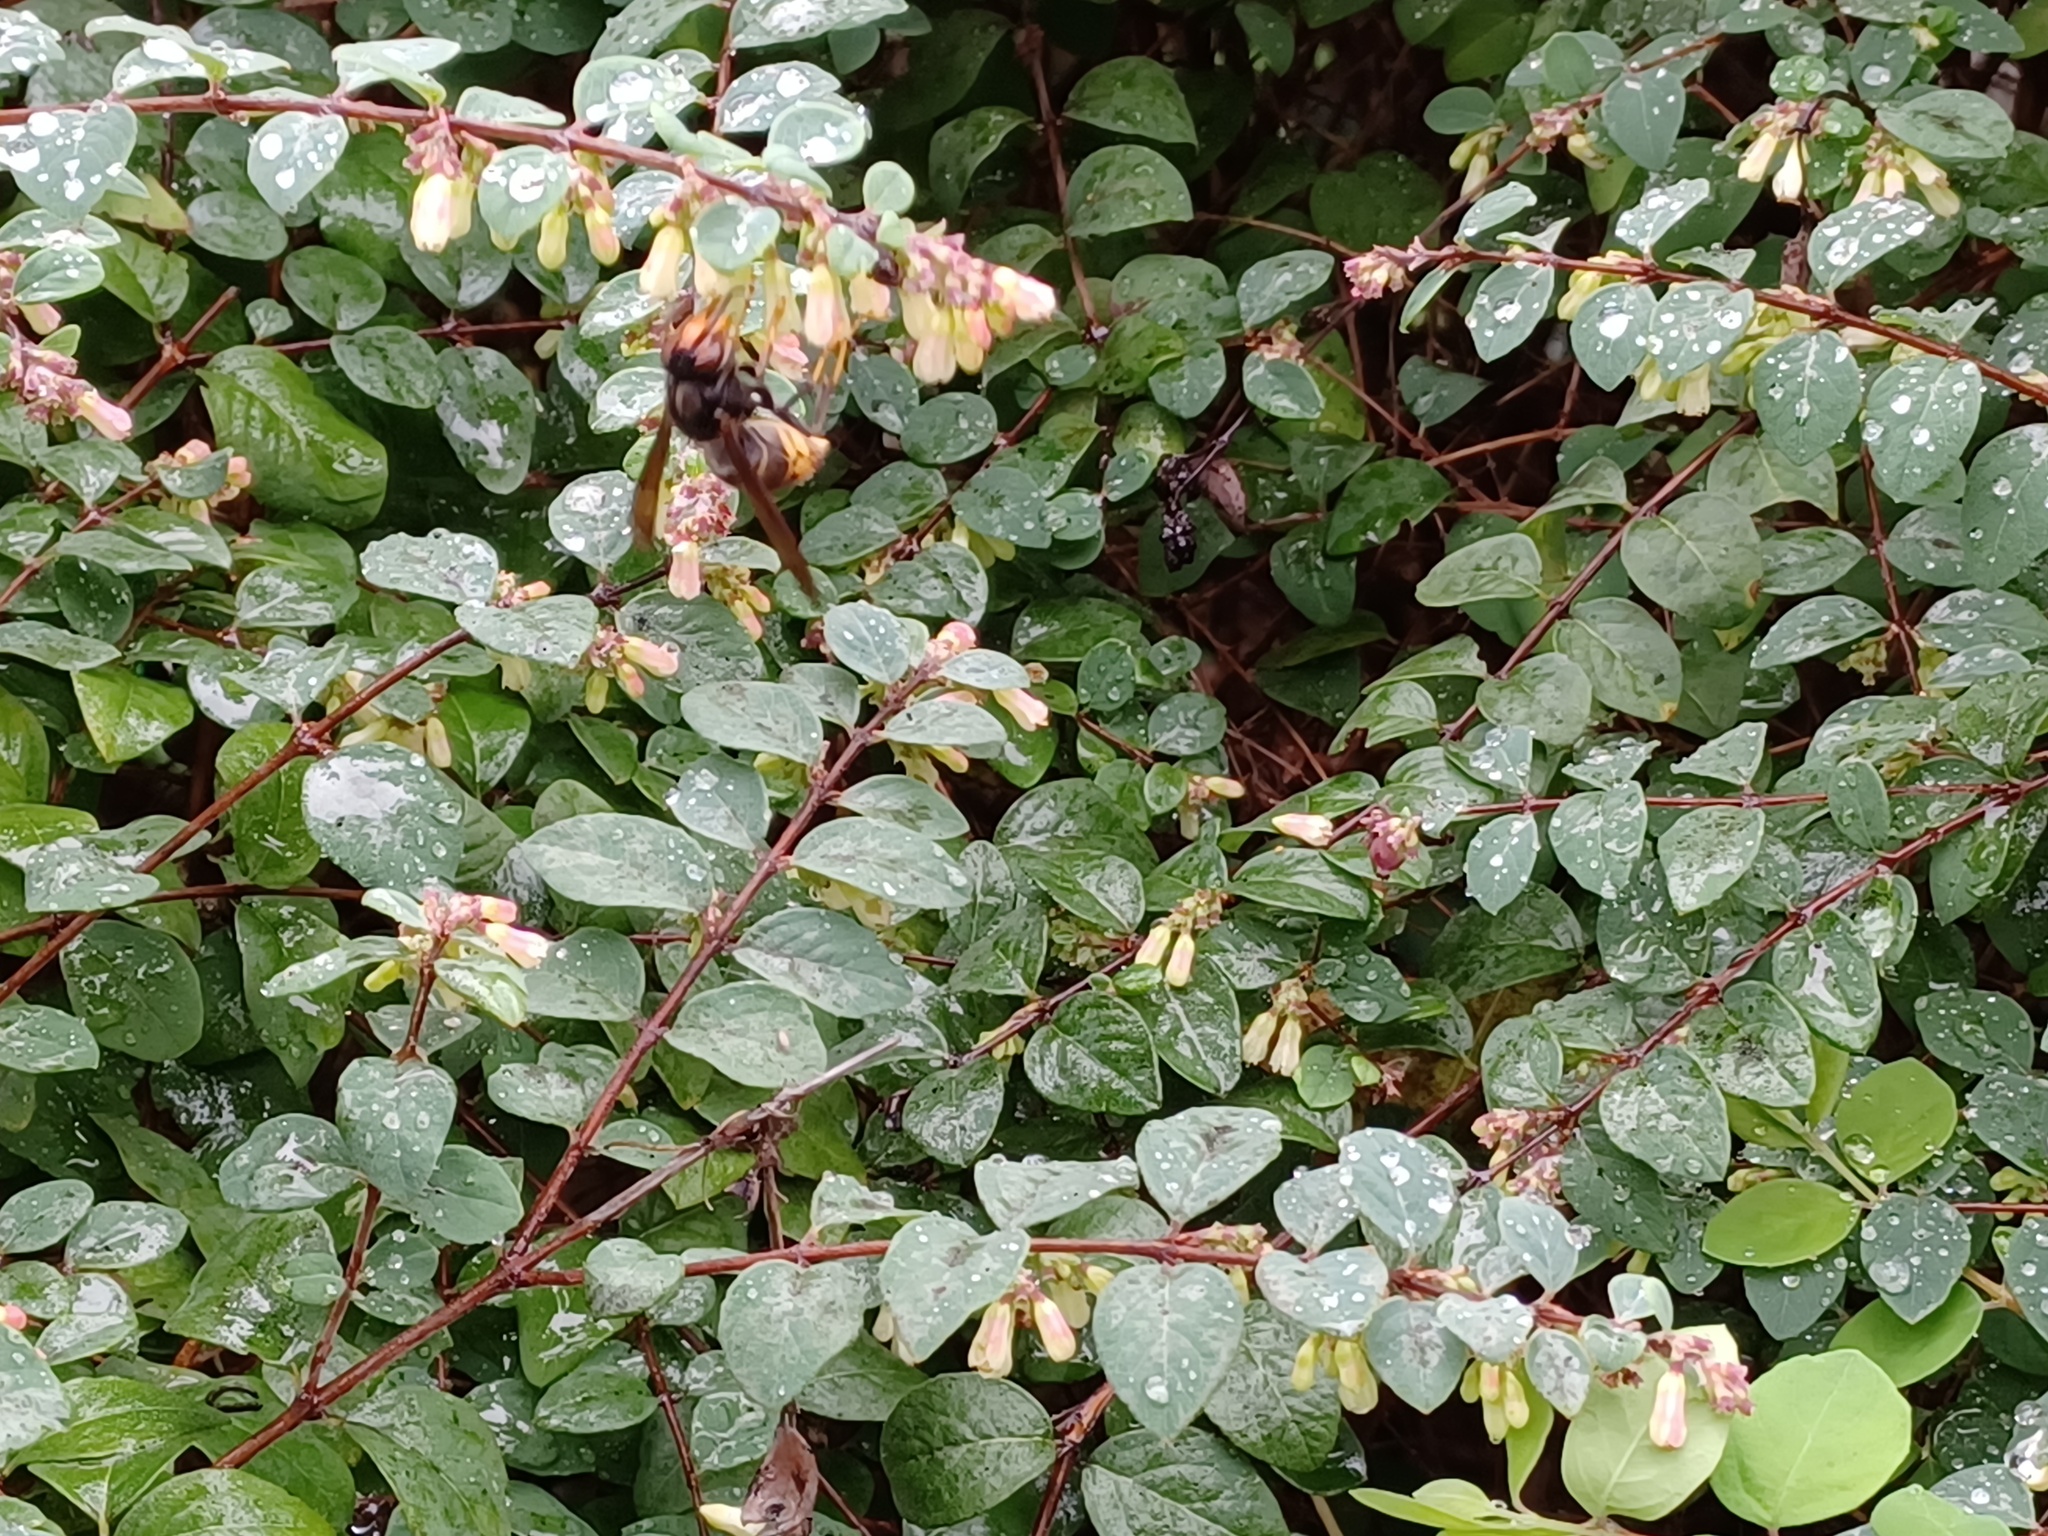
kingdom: Animalia
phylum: Arthropoda
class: Insecta
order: Hymenoptera
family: Vespidae
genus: Vespa
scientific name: Vespa velutina
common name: Asian hornet
